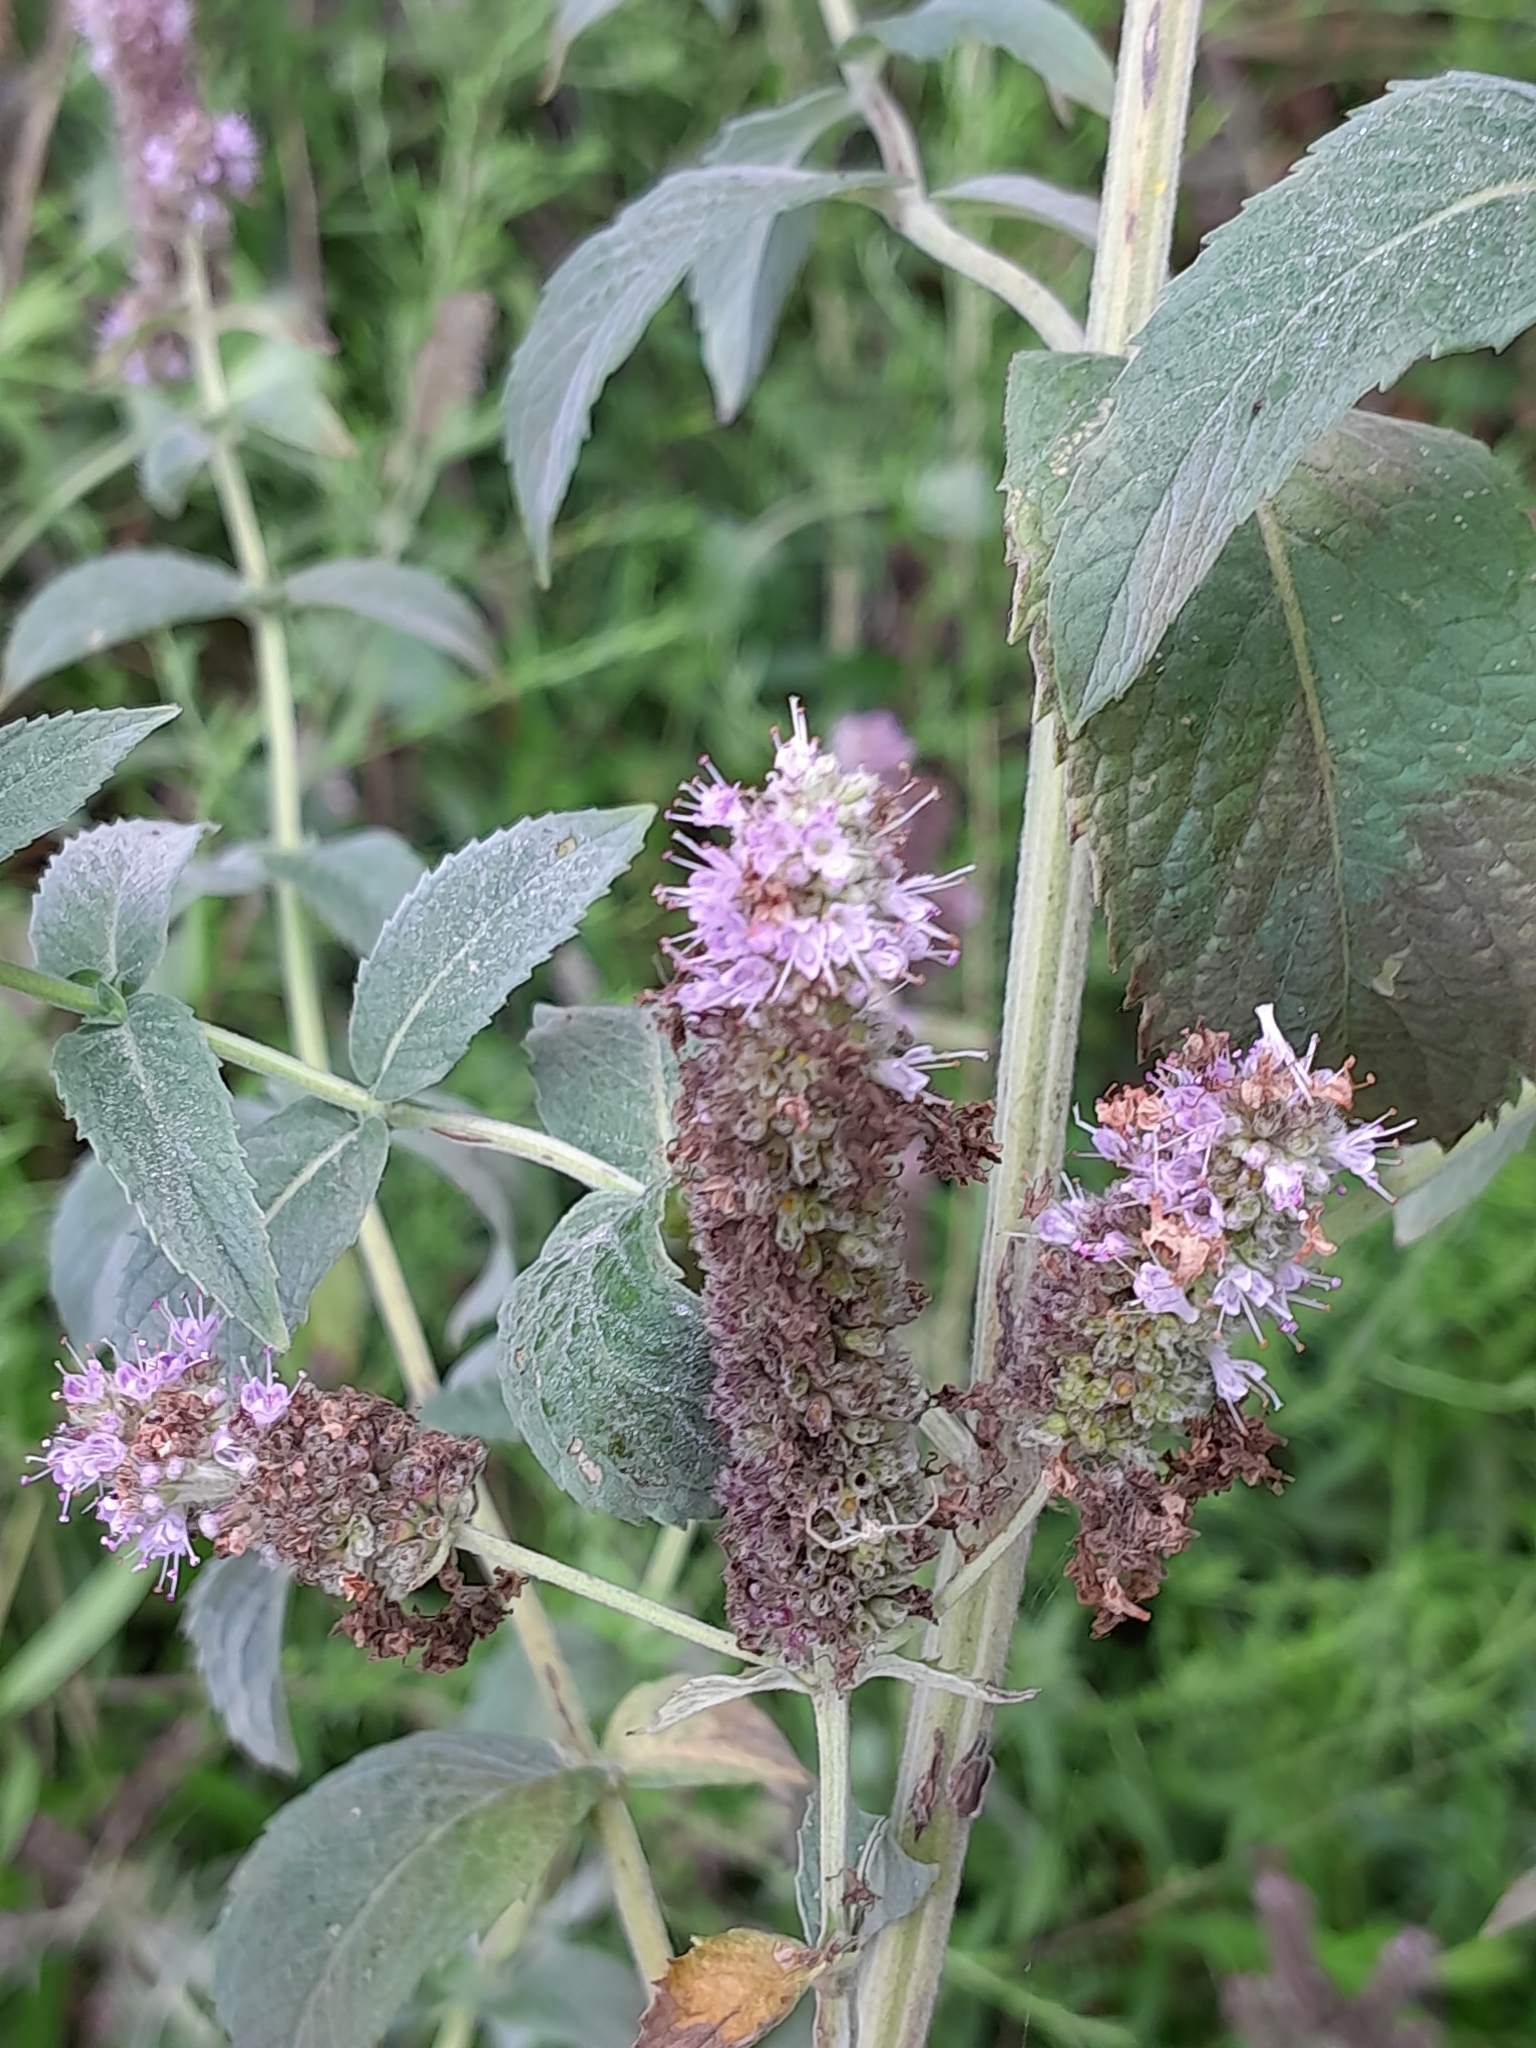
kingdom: Plantae
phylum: Tracheophyta
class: Magnoliopsida
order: Lamiales
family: Lamiaceae
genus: Mentha
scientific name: Mentha longifolia
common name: Horse mint
